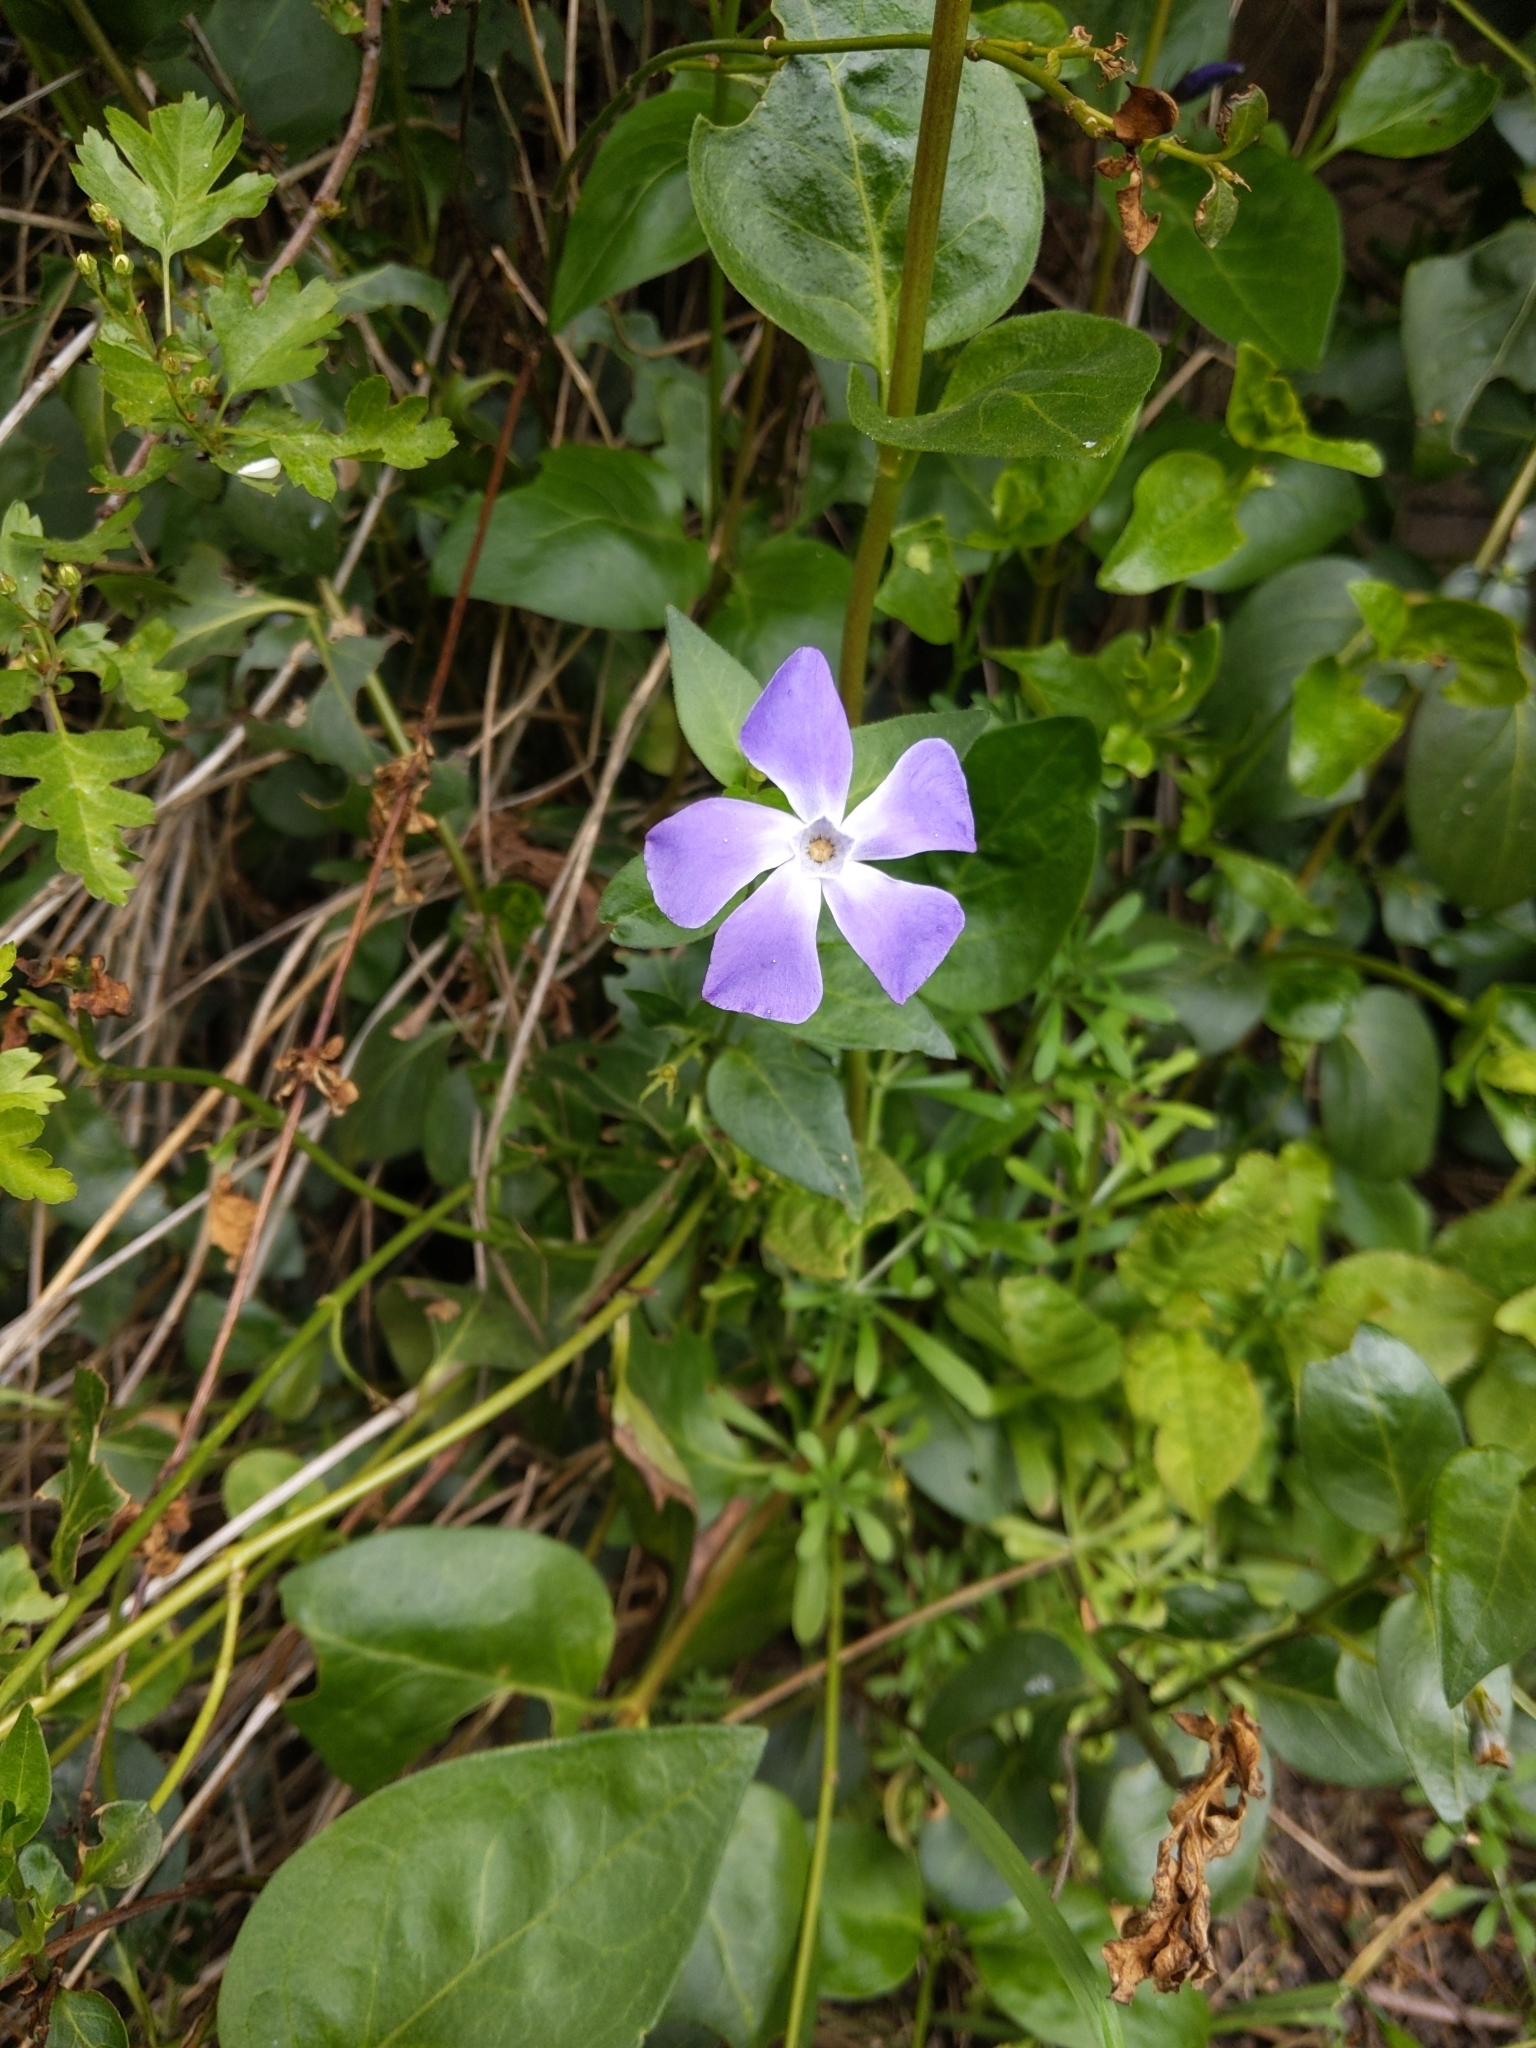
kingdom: Plantae
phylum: Tracheophyta
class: Magnoliopsida
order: Gentianales
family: Apocynaceae
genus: Vinca
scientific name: Vinca major
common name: Greater periwinkle
